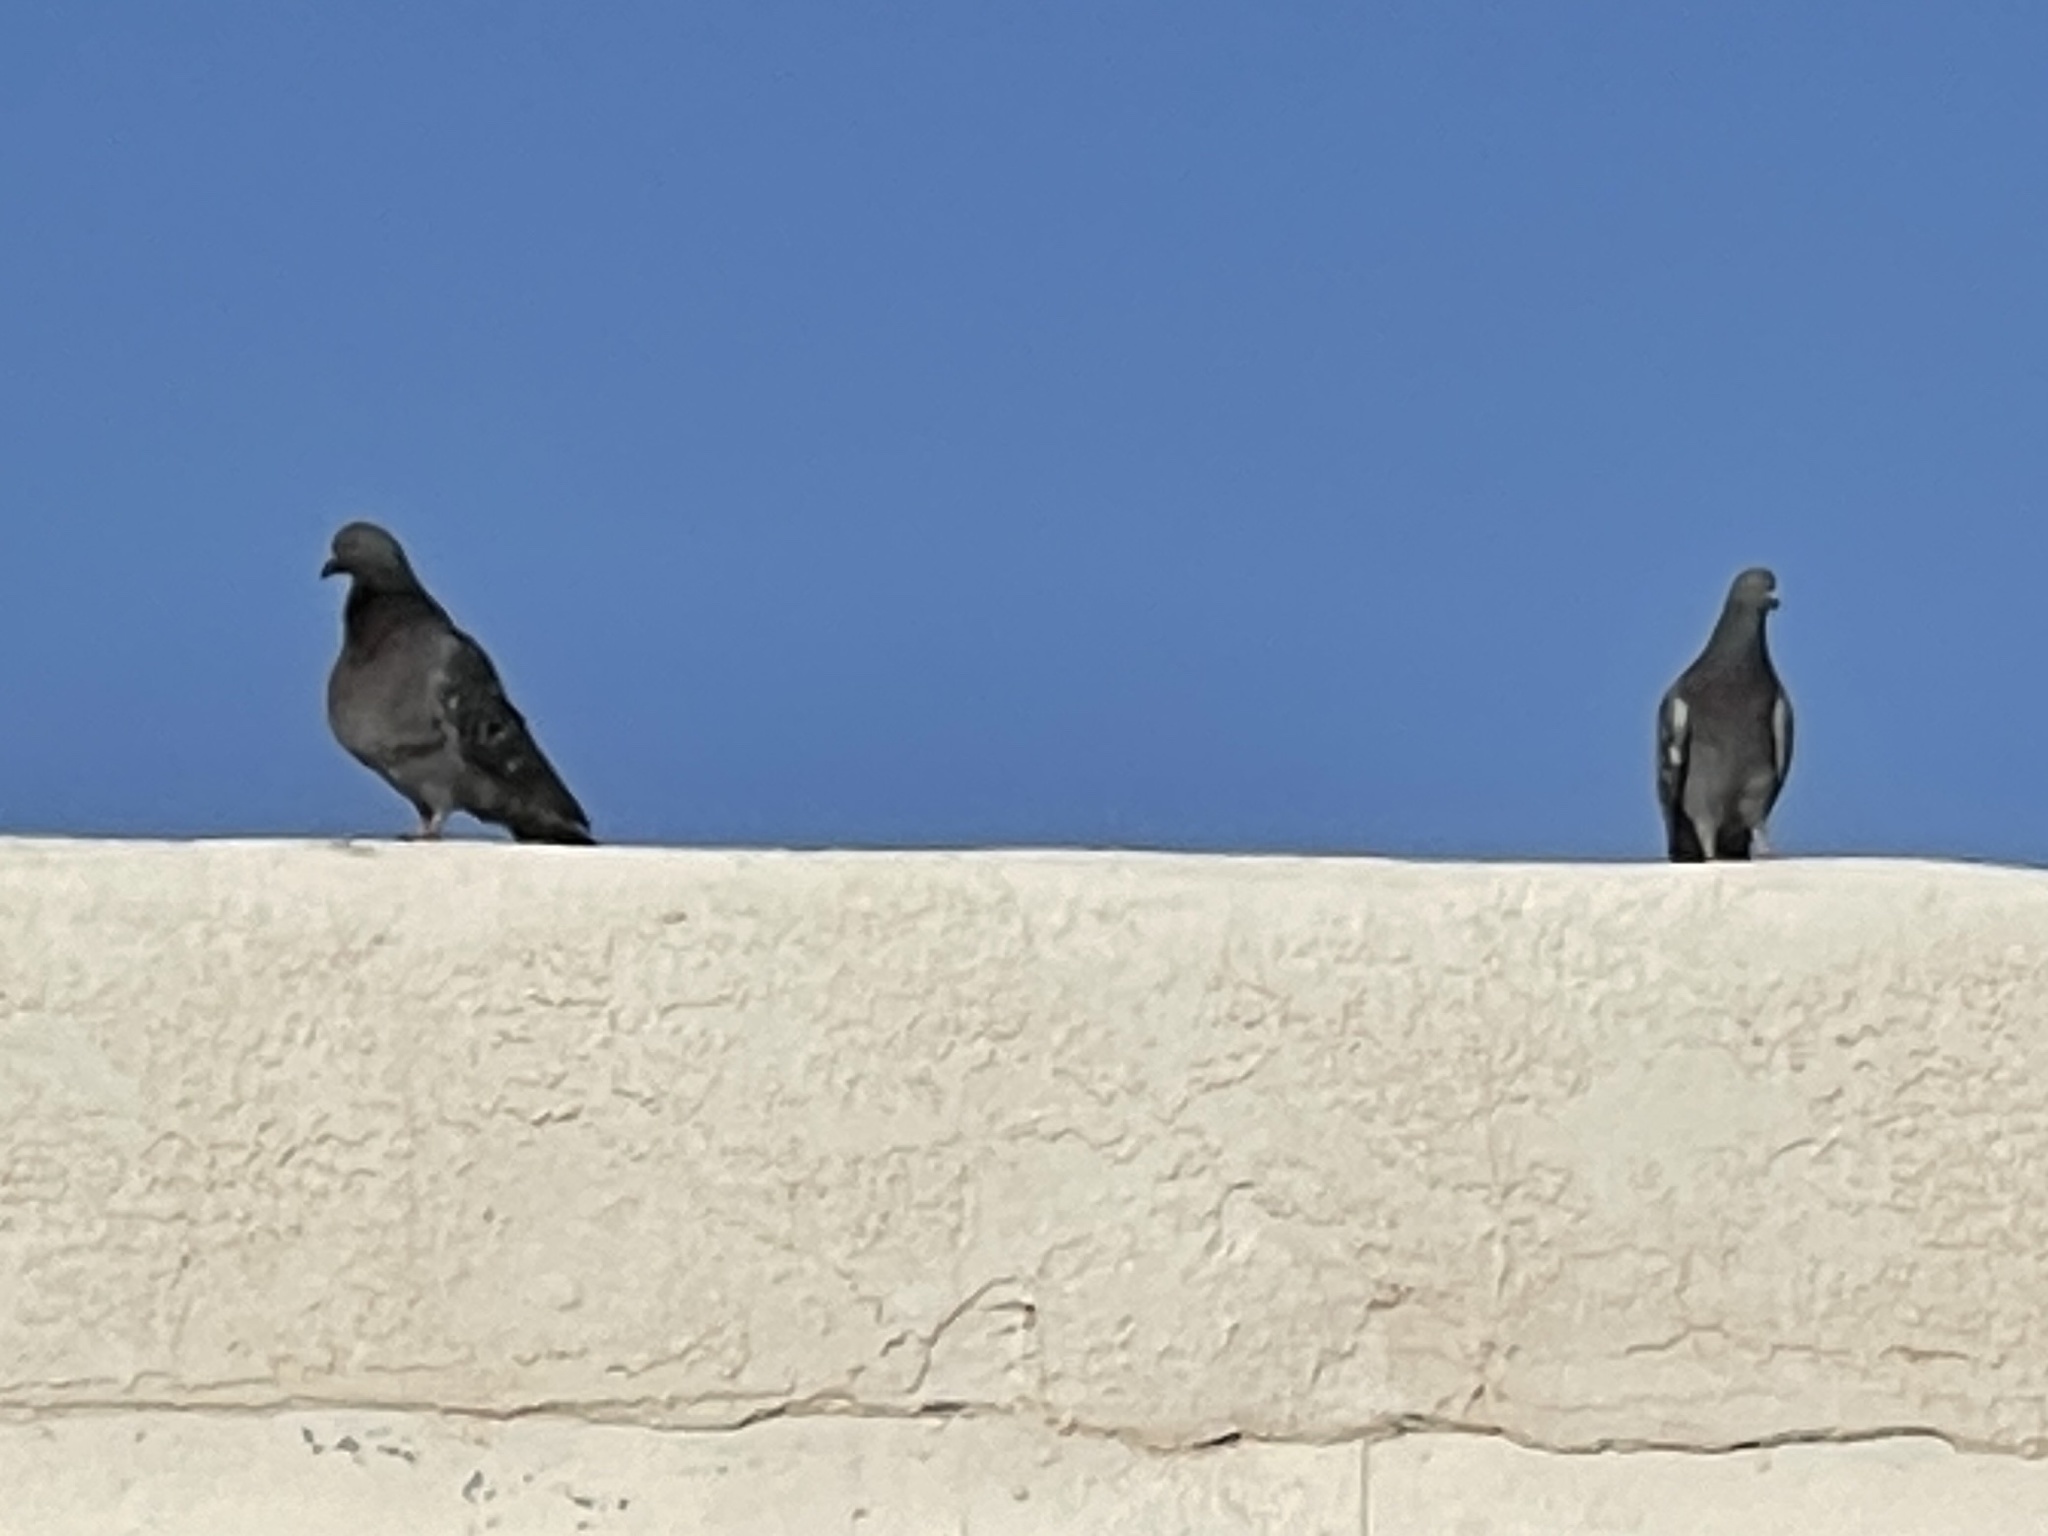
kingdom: Animalia
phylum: Chordata
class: Aves
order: Columbiformes
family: Columbidae
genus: Columba
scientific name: Columba livia
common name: Rock pigeon
